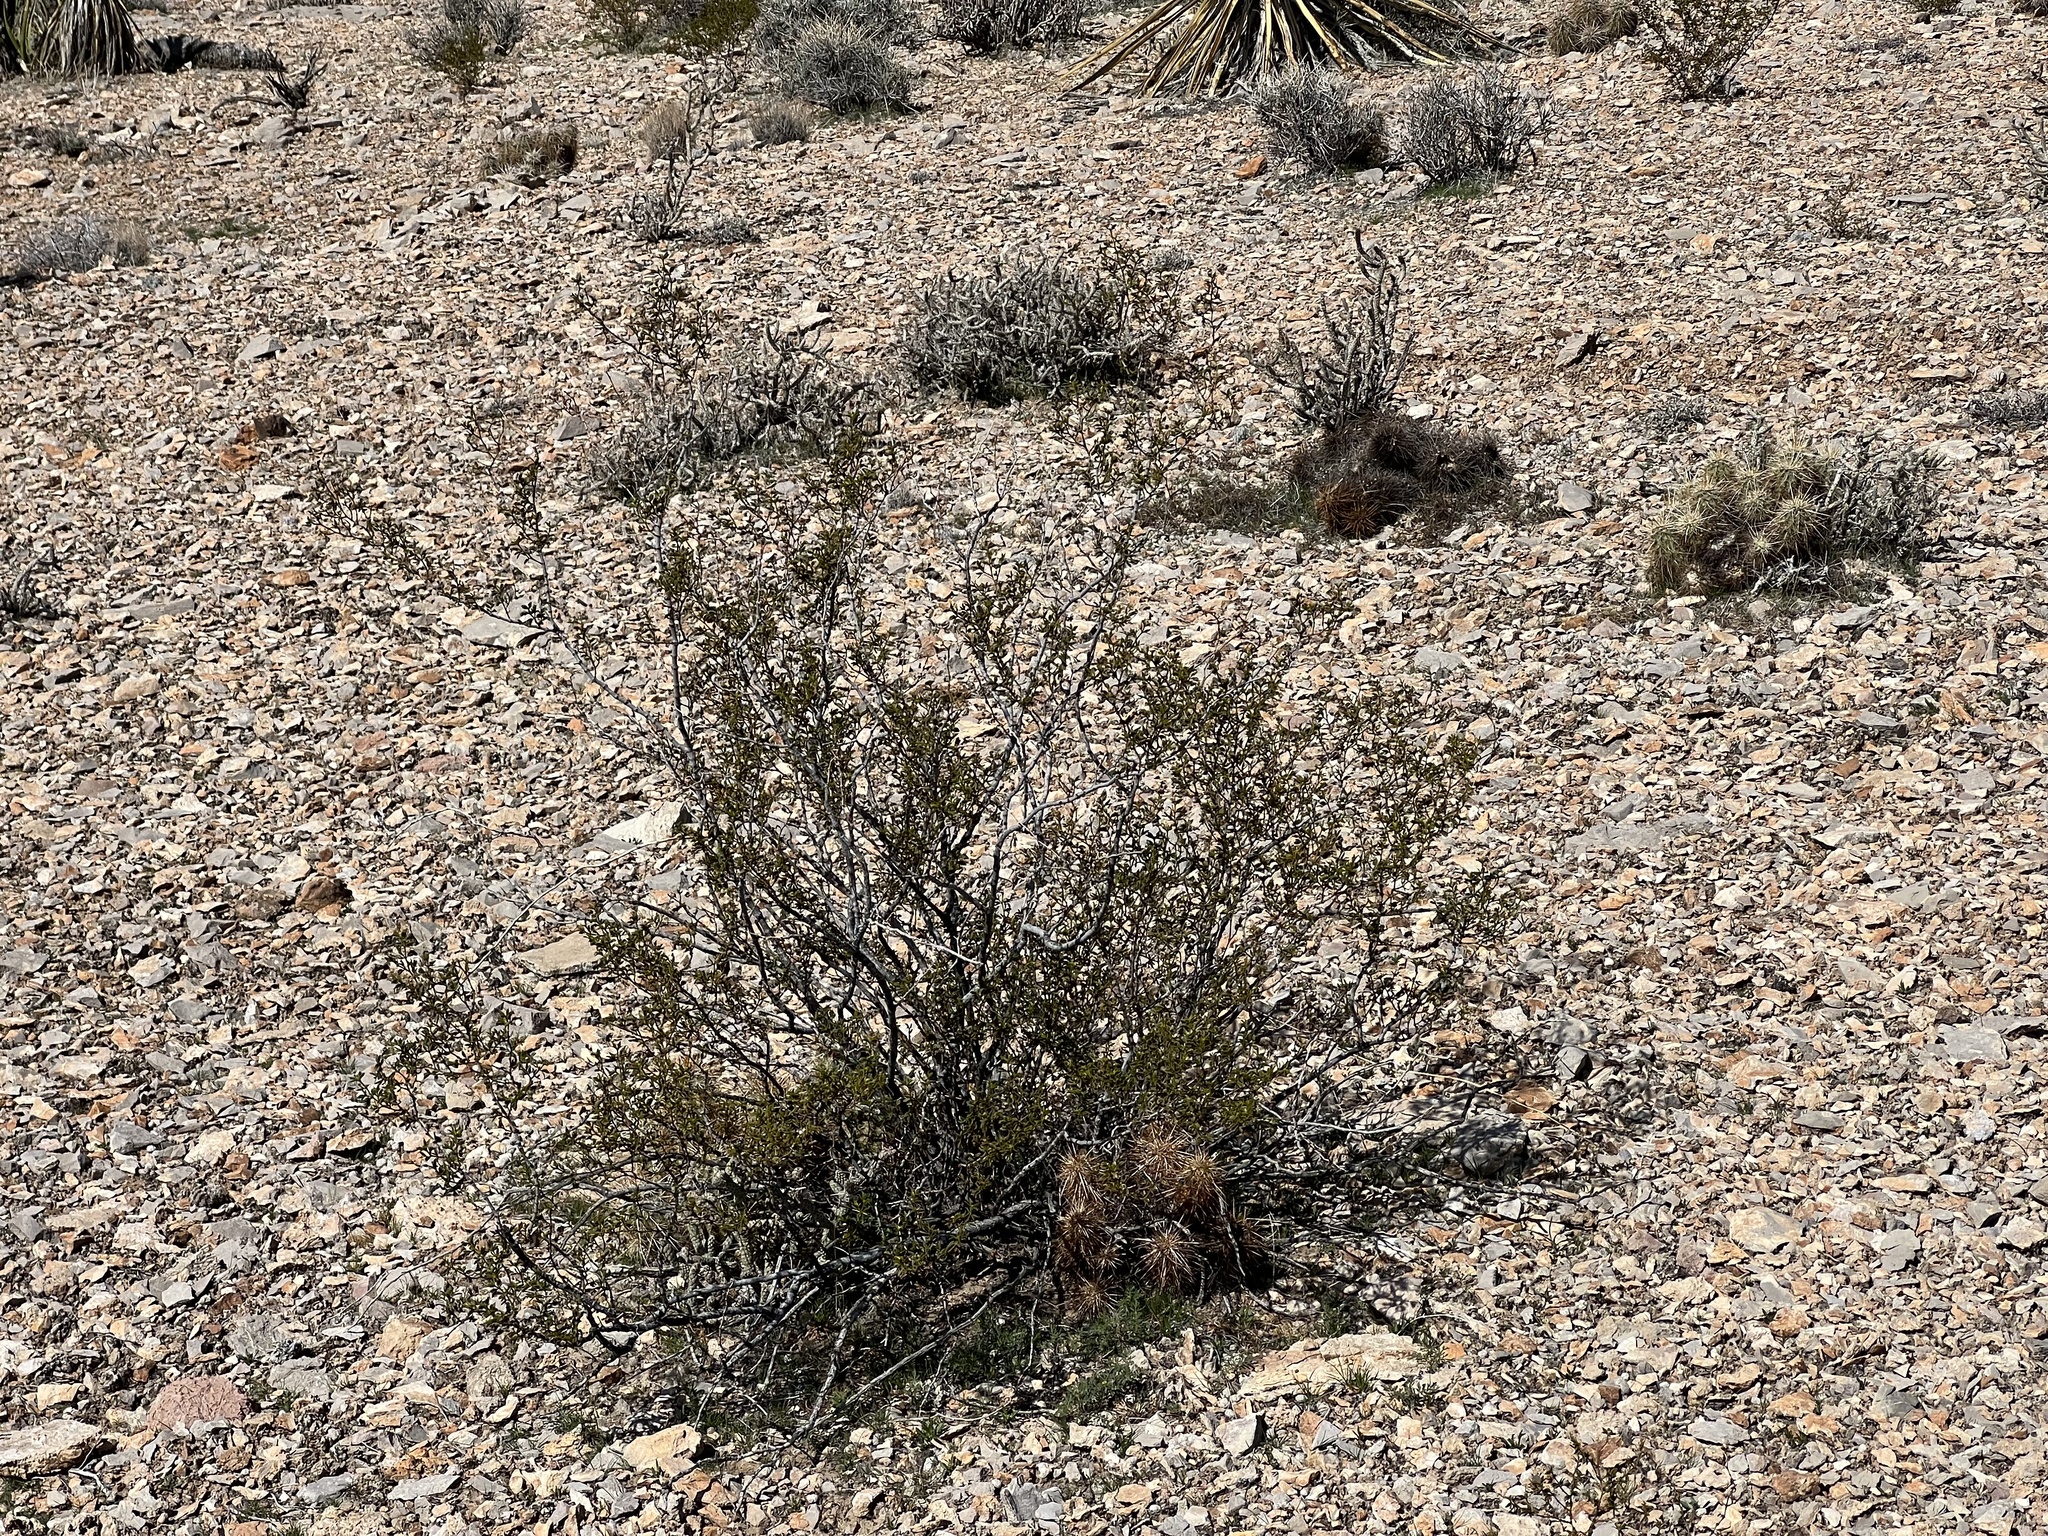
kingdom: Plantae
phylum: Tracheophyta
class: Magnoliopsida
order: Zygophyllales
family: Zygophyllaceae
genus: Larrea
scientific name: Larrea tridentata
